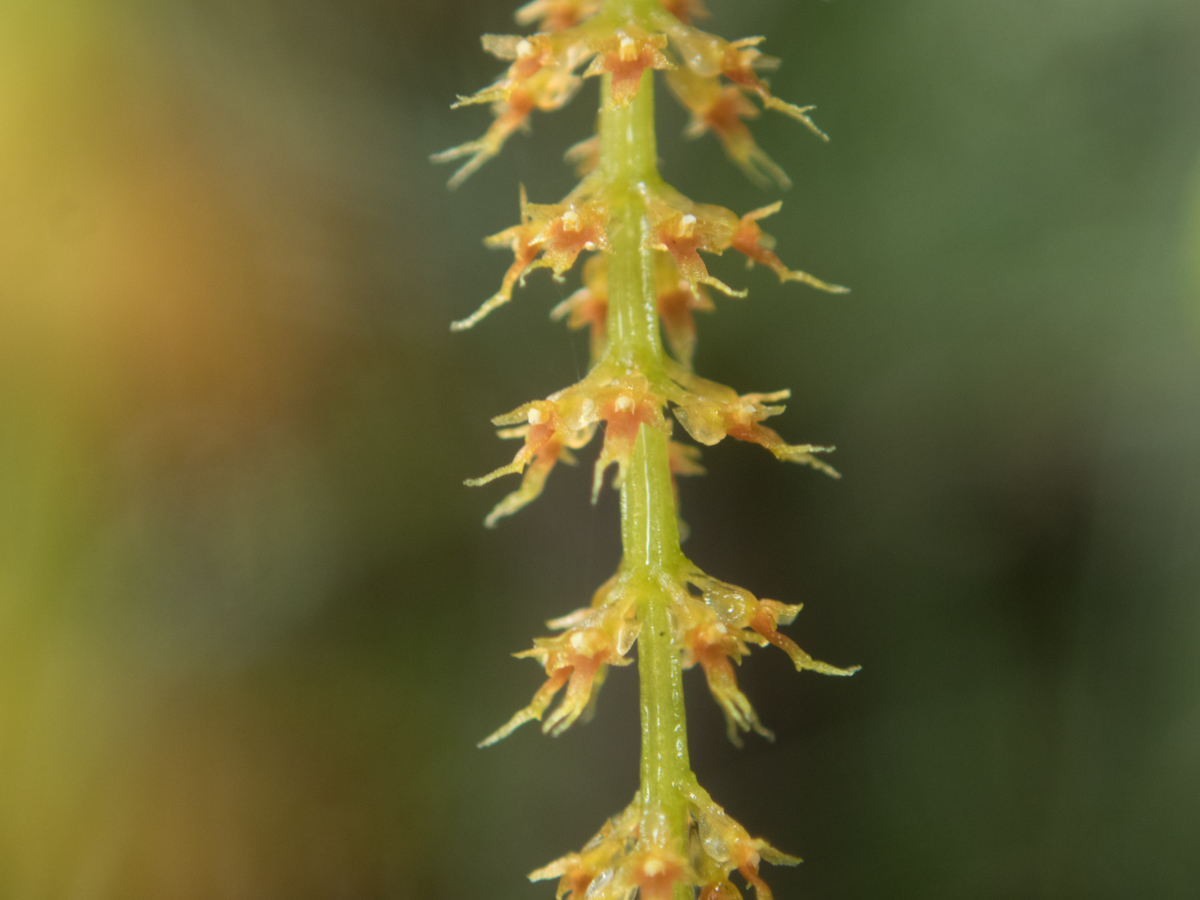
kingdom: Plantae
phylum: Tracheophyta
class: Liliopsida
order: Asparagales
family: Orchidaceae
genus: Oberonia
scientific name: Oberonia falcata
